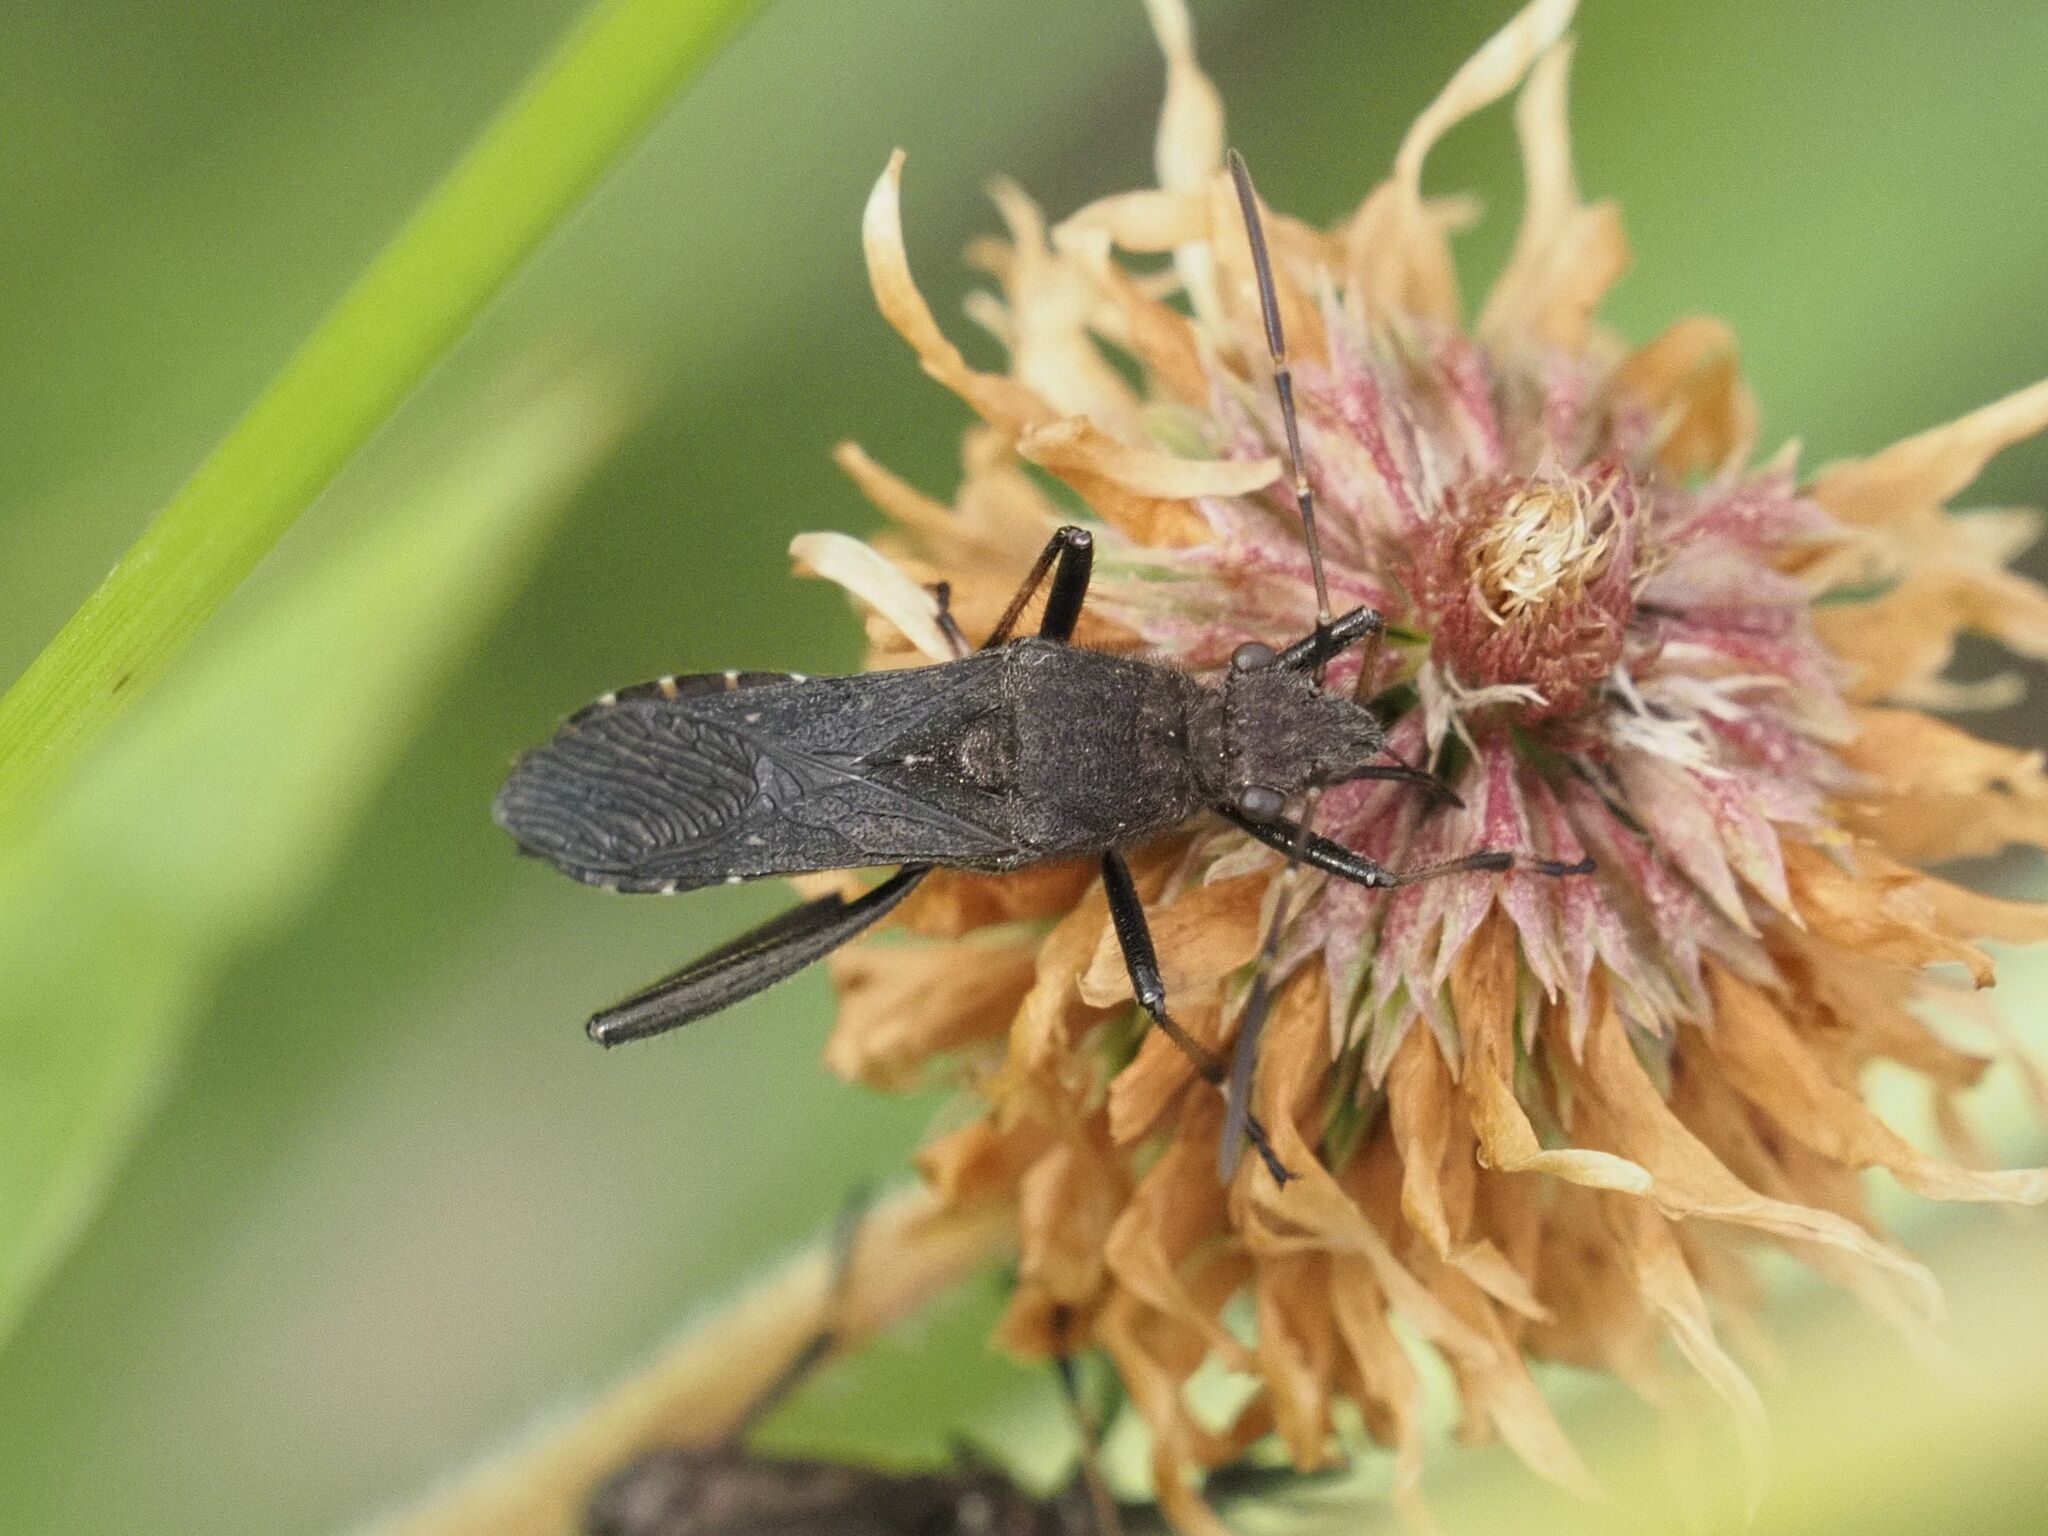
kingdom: Animalia
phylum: Arthropoda
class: Insecta
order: Hemiptera
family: Alydidae
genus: Alydus
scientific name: Alydus calcaratus
